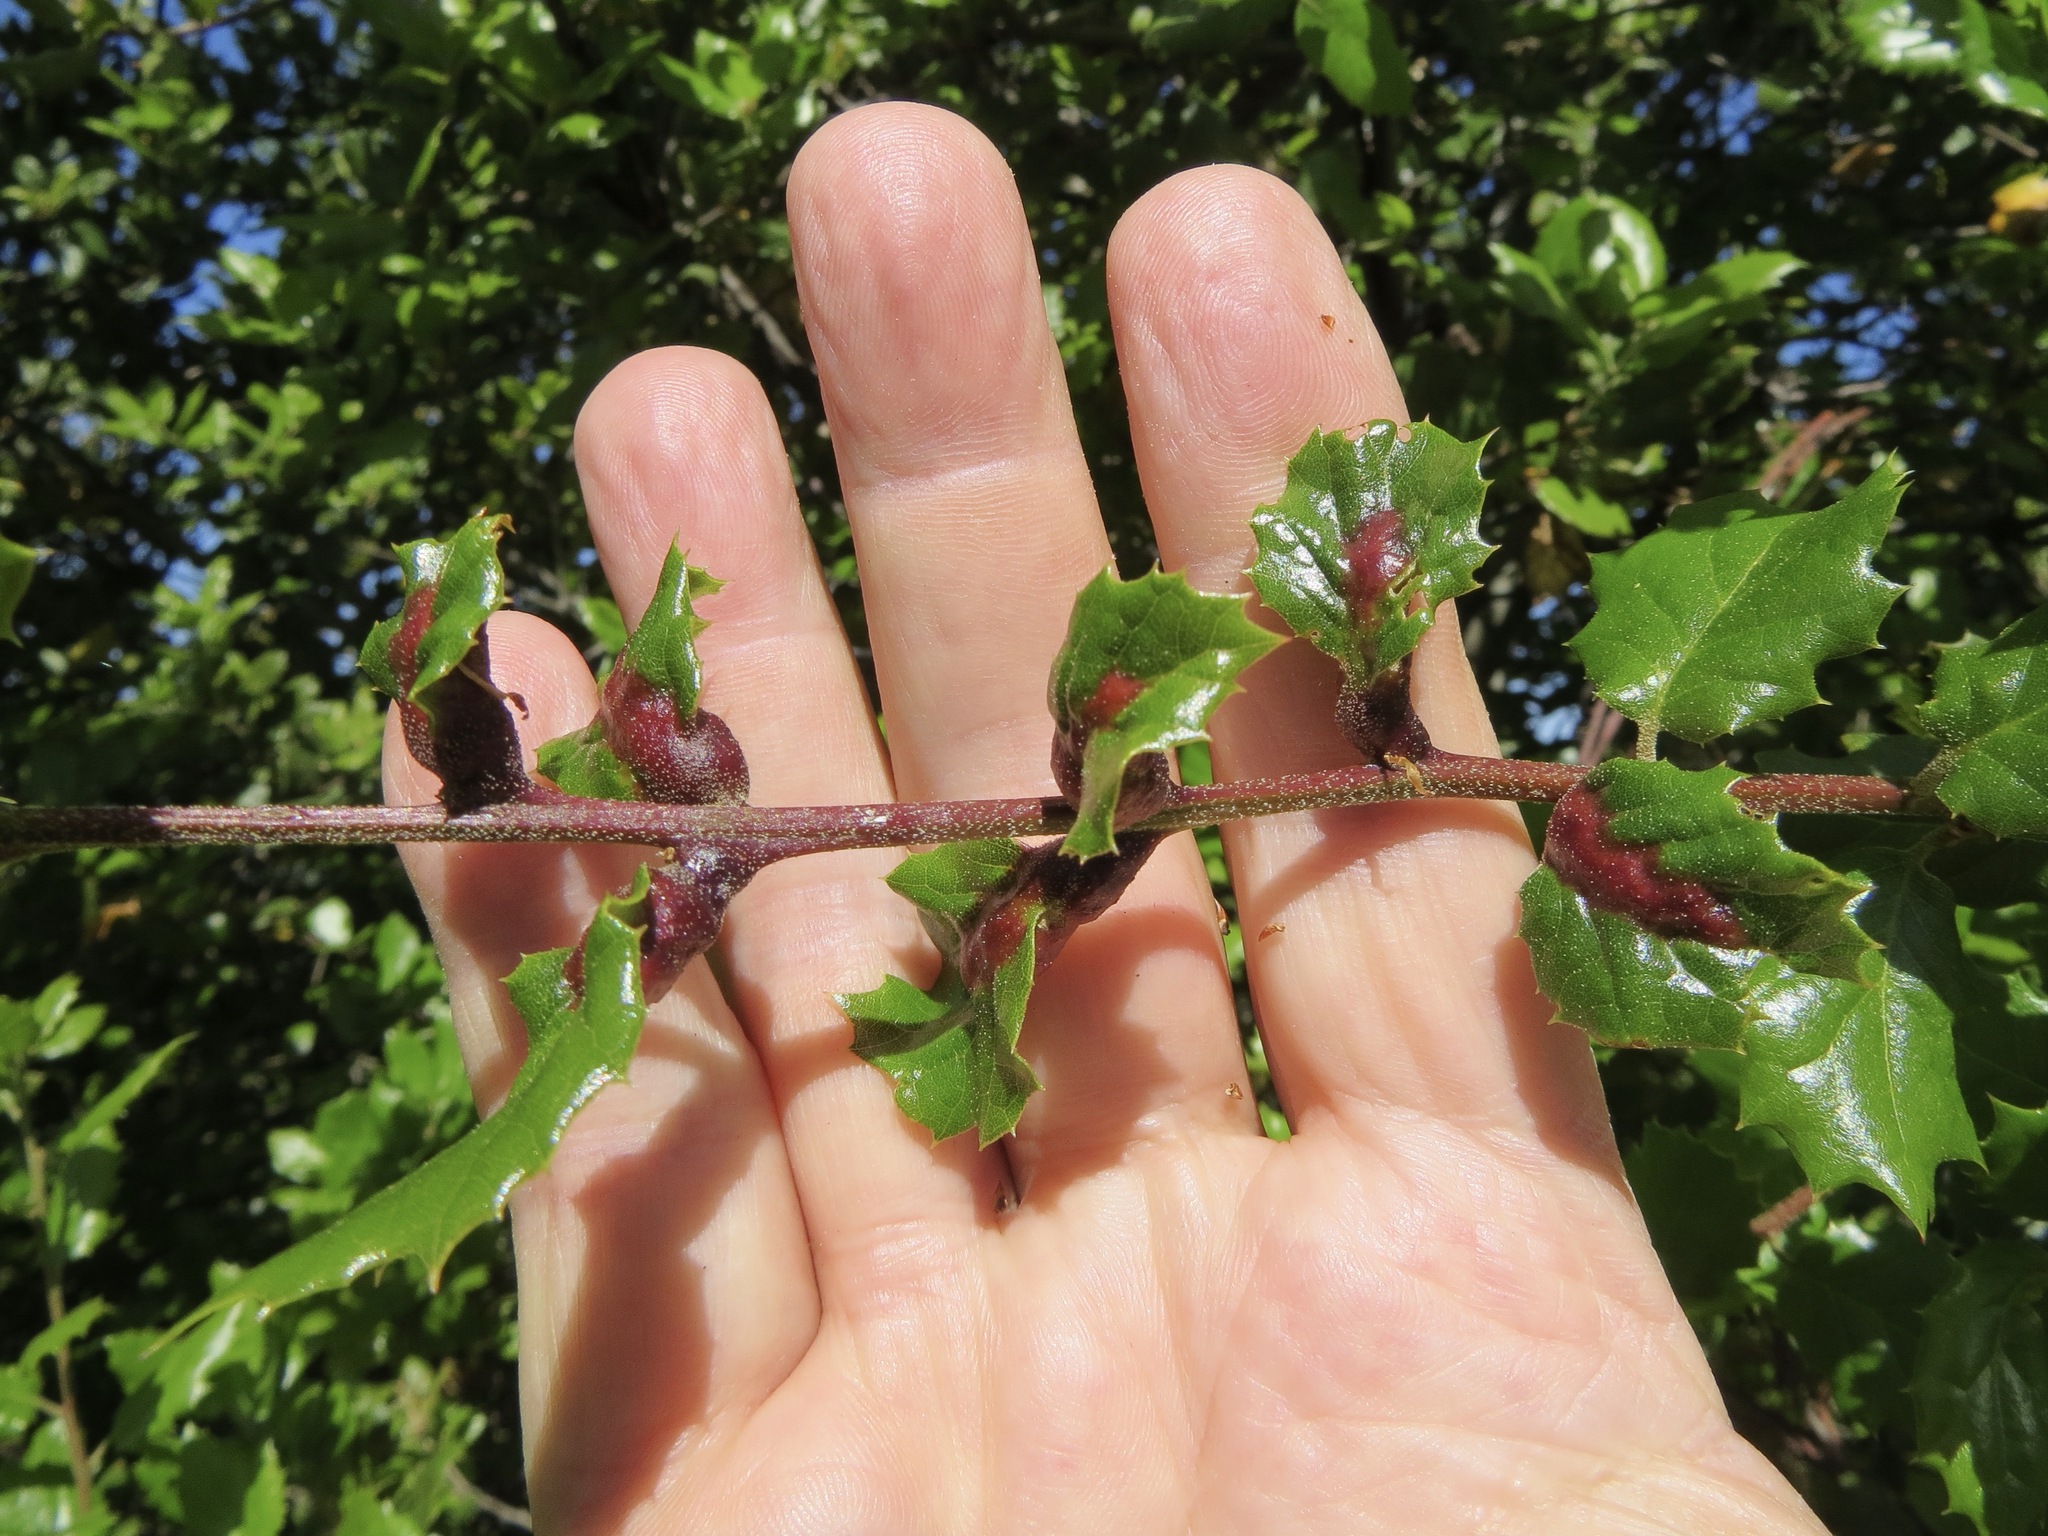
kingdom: Animalia
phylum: Arthropoda
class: Insecta
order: Hymenoptera
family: Cynipidae
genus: Melikaiella
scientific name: Melikaiella
